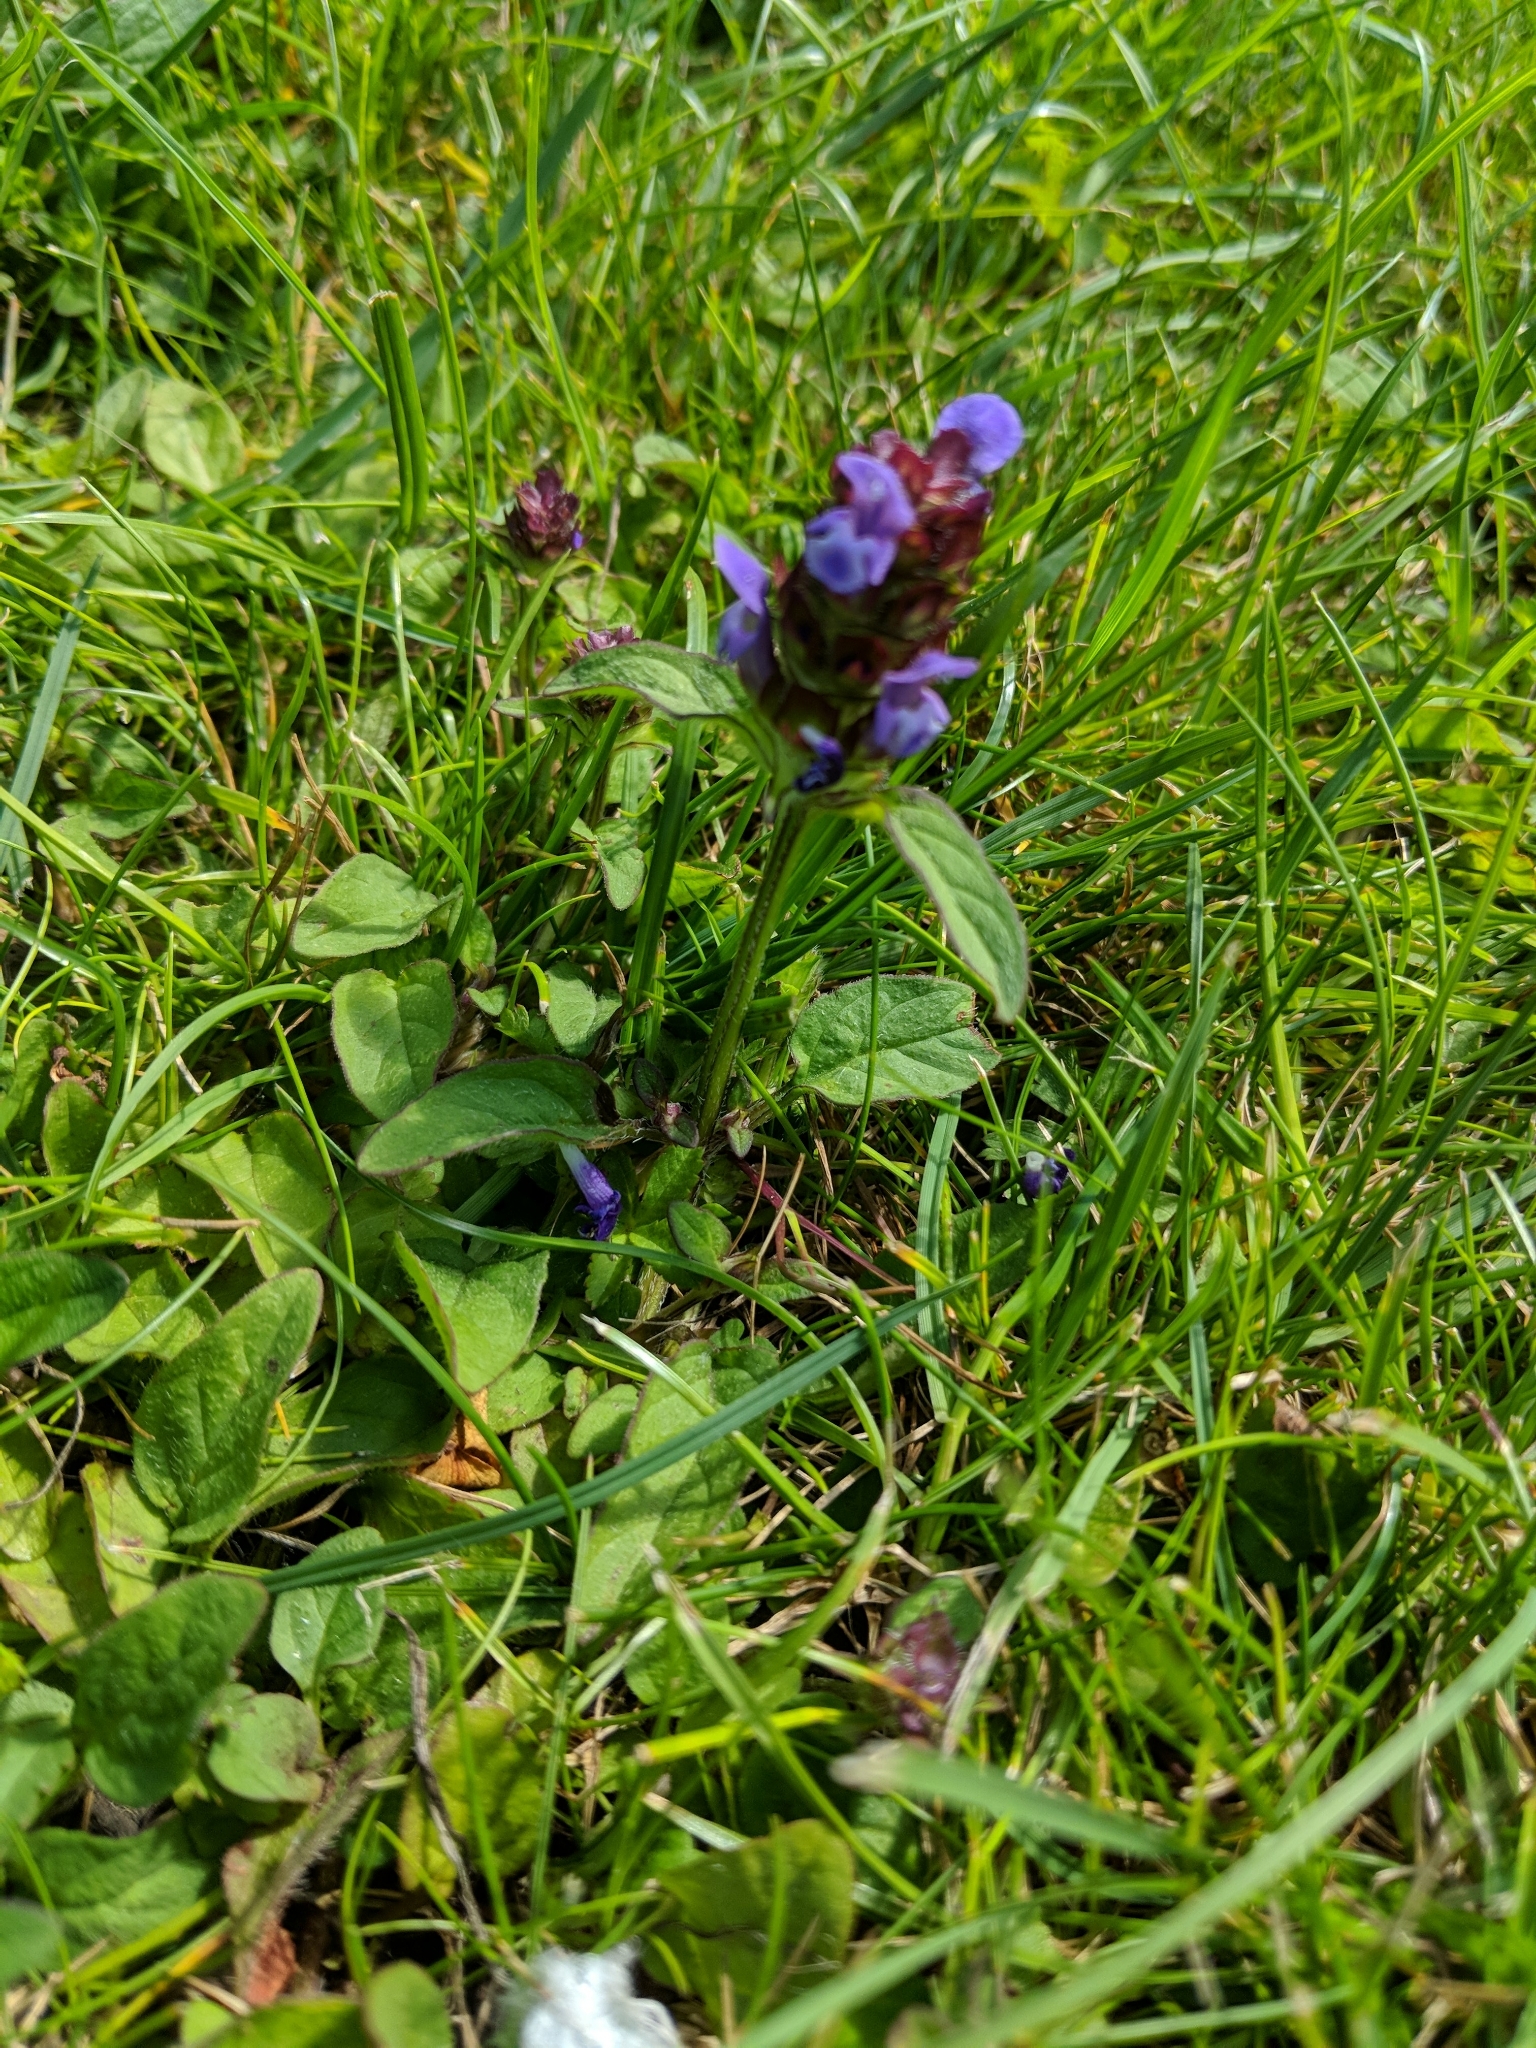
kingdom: Plantae
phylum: Tracheophyta
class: Magnoliopsida
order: Lamiales
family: Lamiaceae
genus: Prunella
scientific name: Prunella vulgaris
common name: Heal-all
